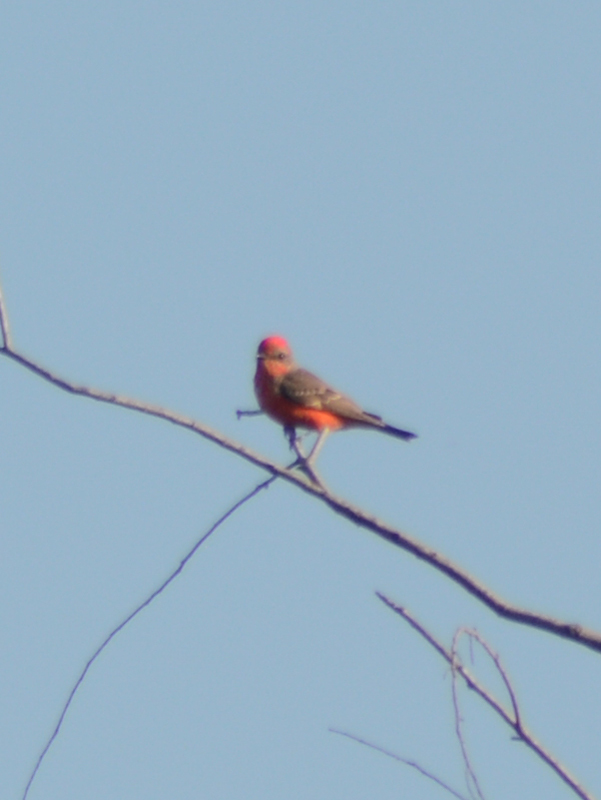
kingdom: Animalia
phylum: Chordata
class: Aves
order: Passeriformes
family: Tyrannidae
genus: Pyrocephalus
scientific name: Pyrocephalus rubinus
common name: Vermilion flycatcher
